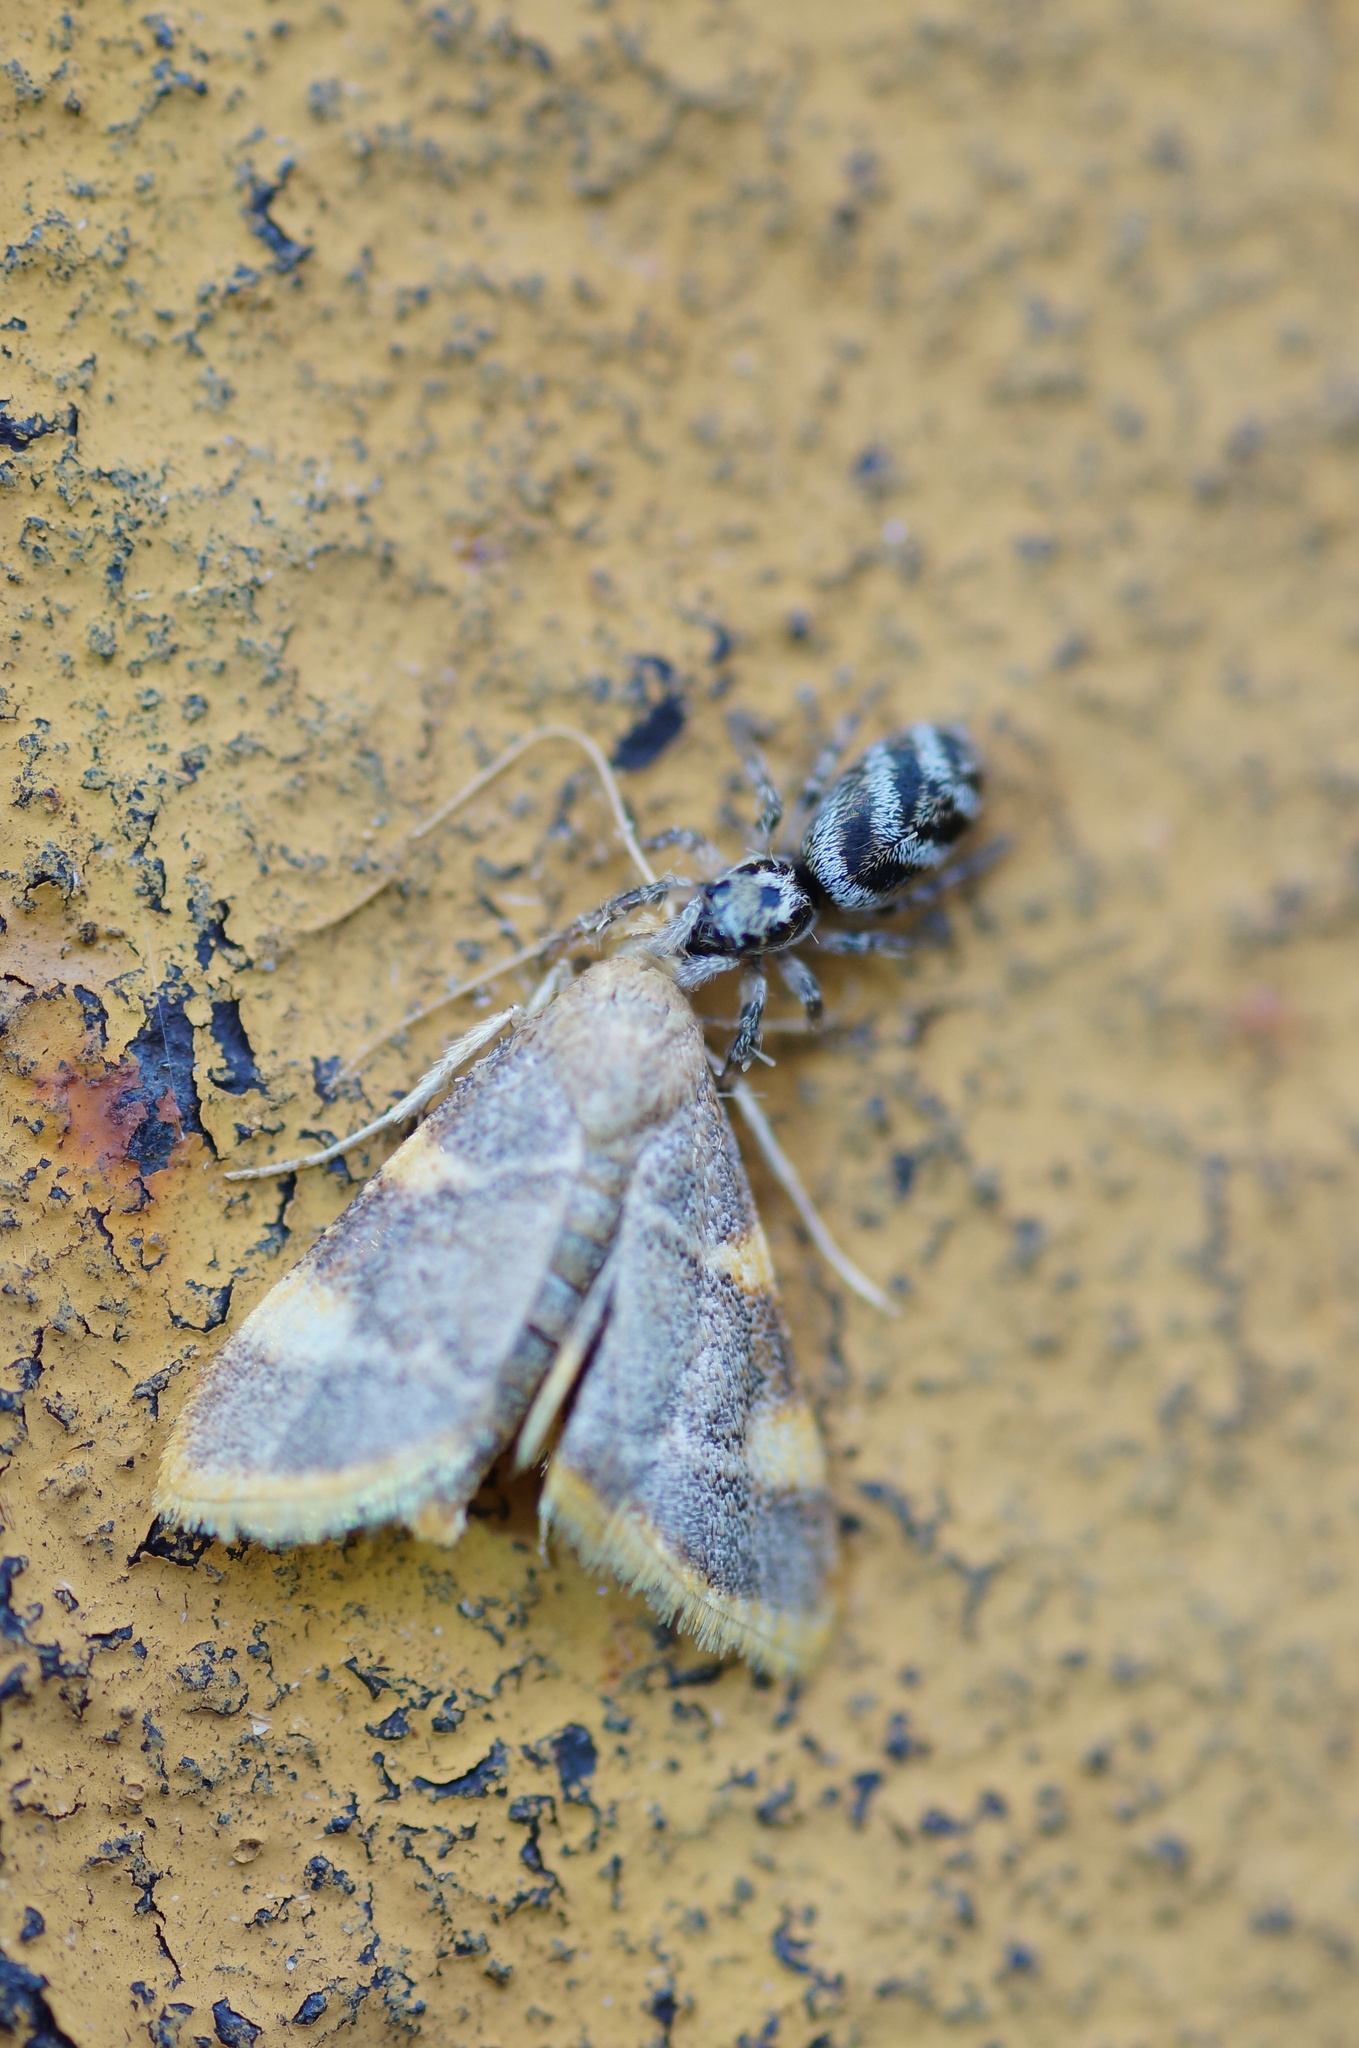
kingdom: Animalia
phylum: Arthropoda
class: Insecta
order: Lepidoptera
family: Pyralidae
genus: Hypsopygia
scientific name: Hypsopygia costalis
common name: Gold triangle
